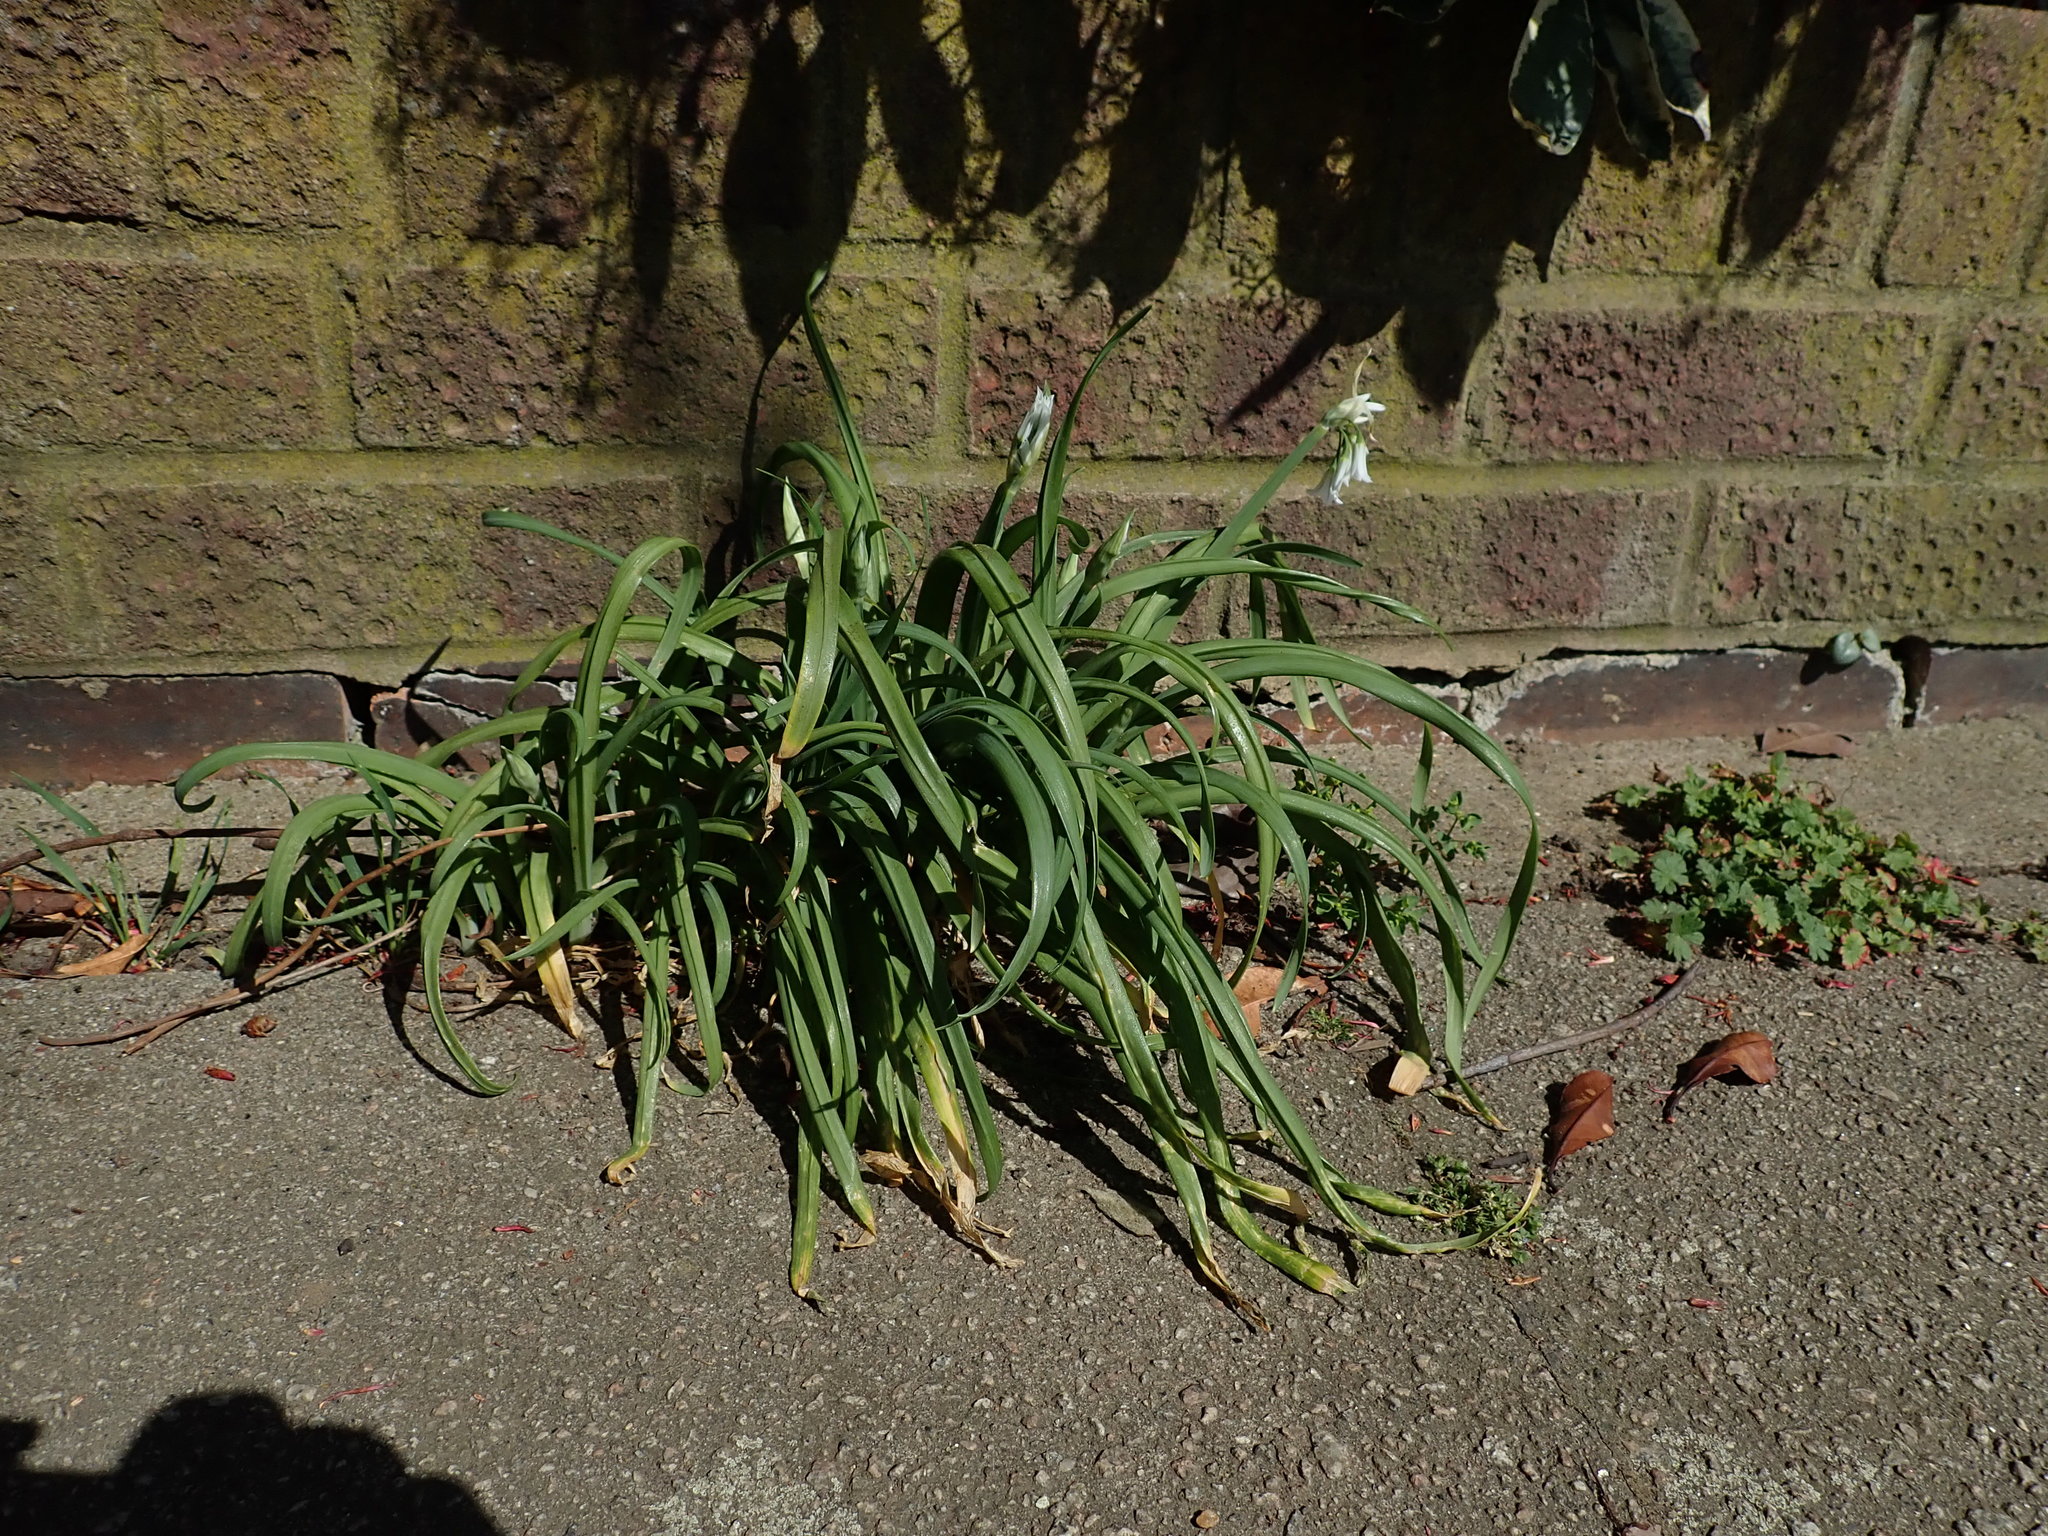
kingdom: Plantae
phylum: Tracheophyta
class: Liliopsida
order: Asparagales
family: Amaryllidaceae
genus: Allium
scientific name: Allium triquetrum
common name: Three-cornered garlic
